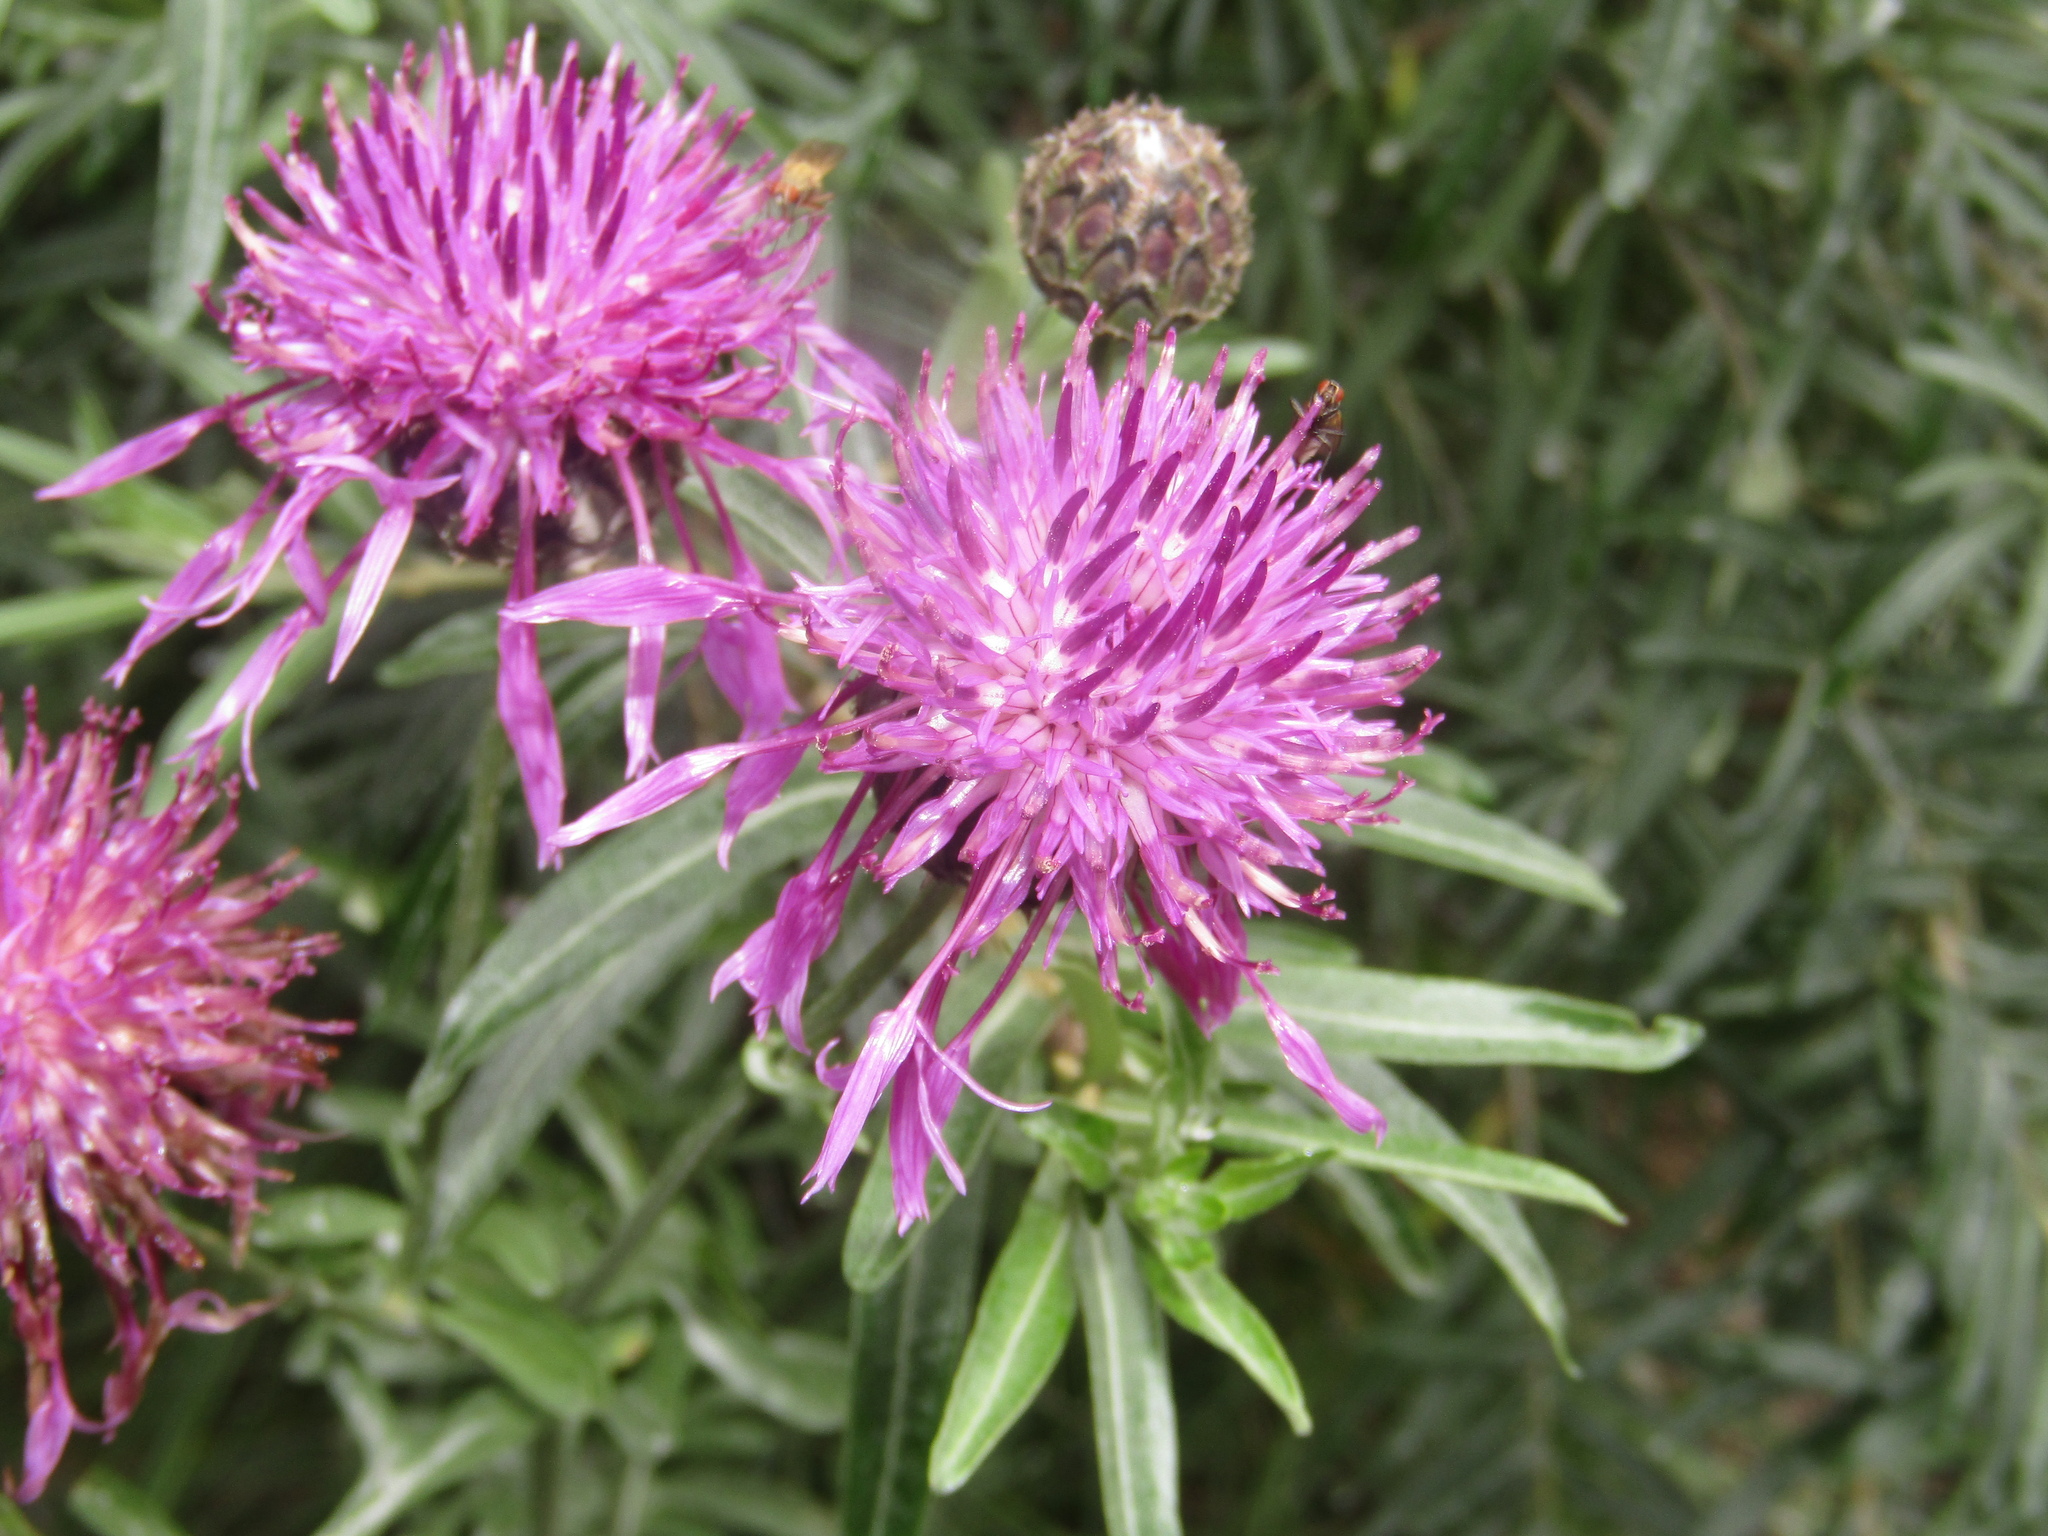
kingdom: Plantae
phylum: Tracheophyta
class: Magnoliopsida
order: Asterales
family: Asteraceae
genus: Centaurea
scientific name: Centaurea scabiosa
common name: Greater knapweed
